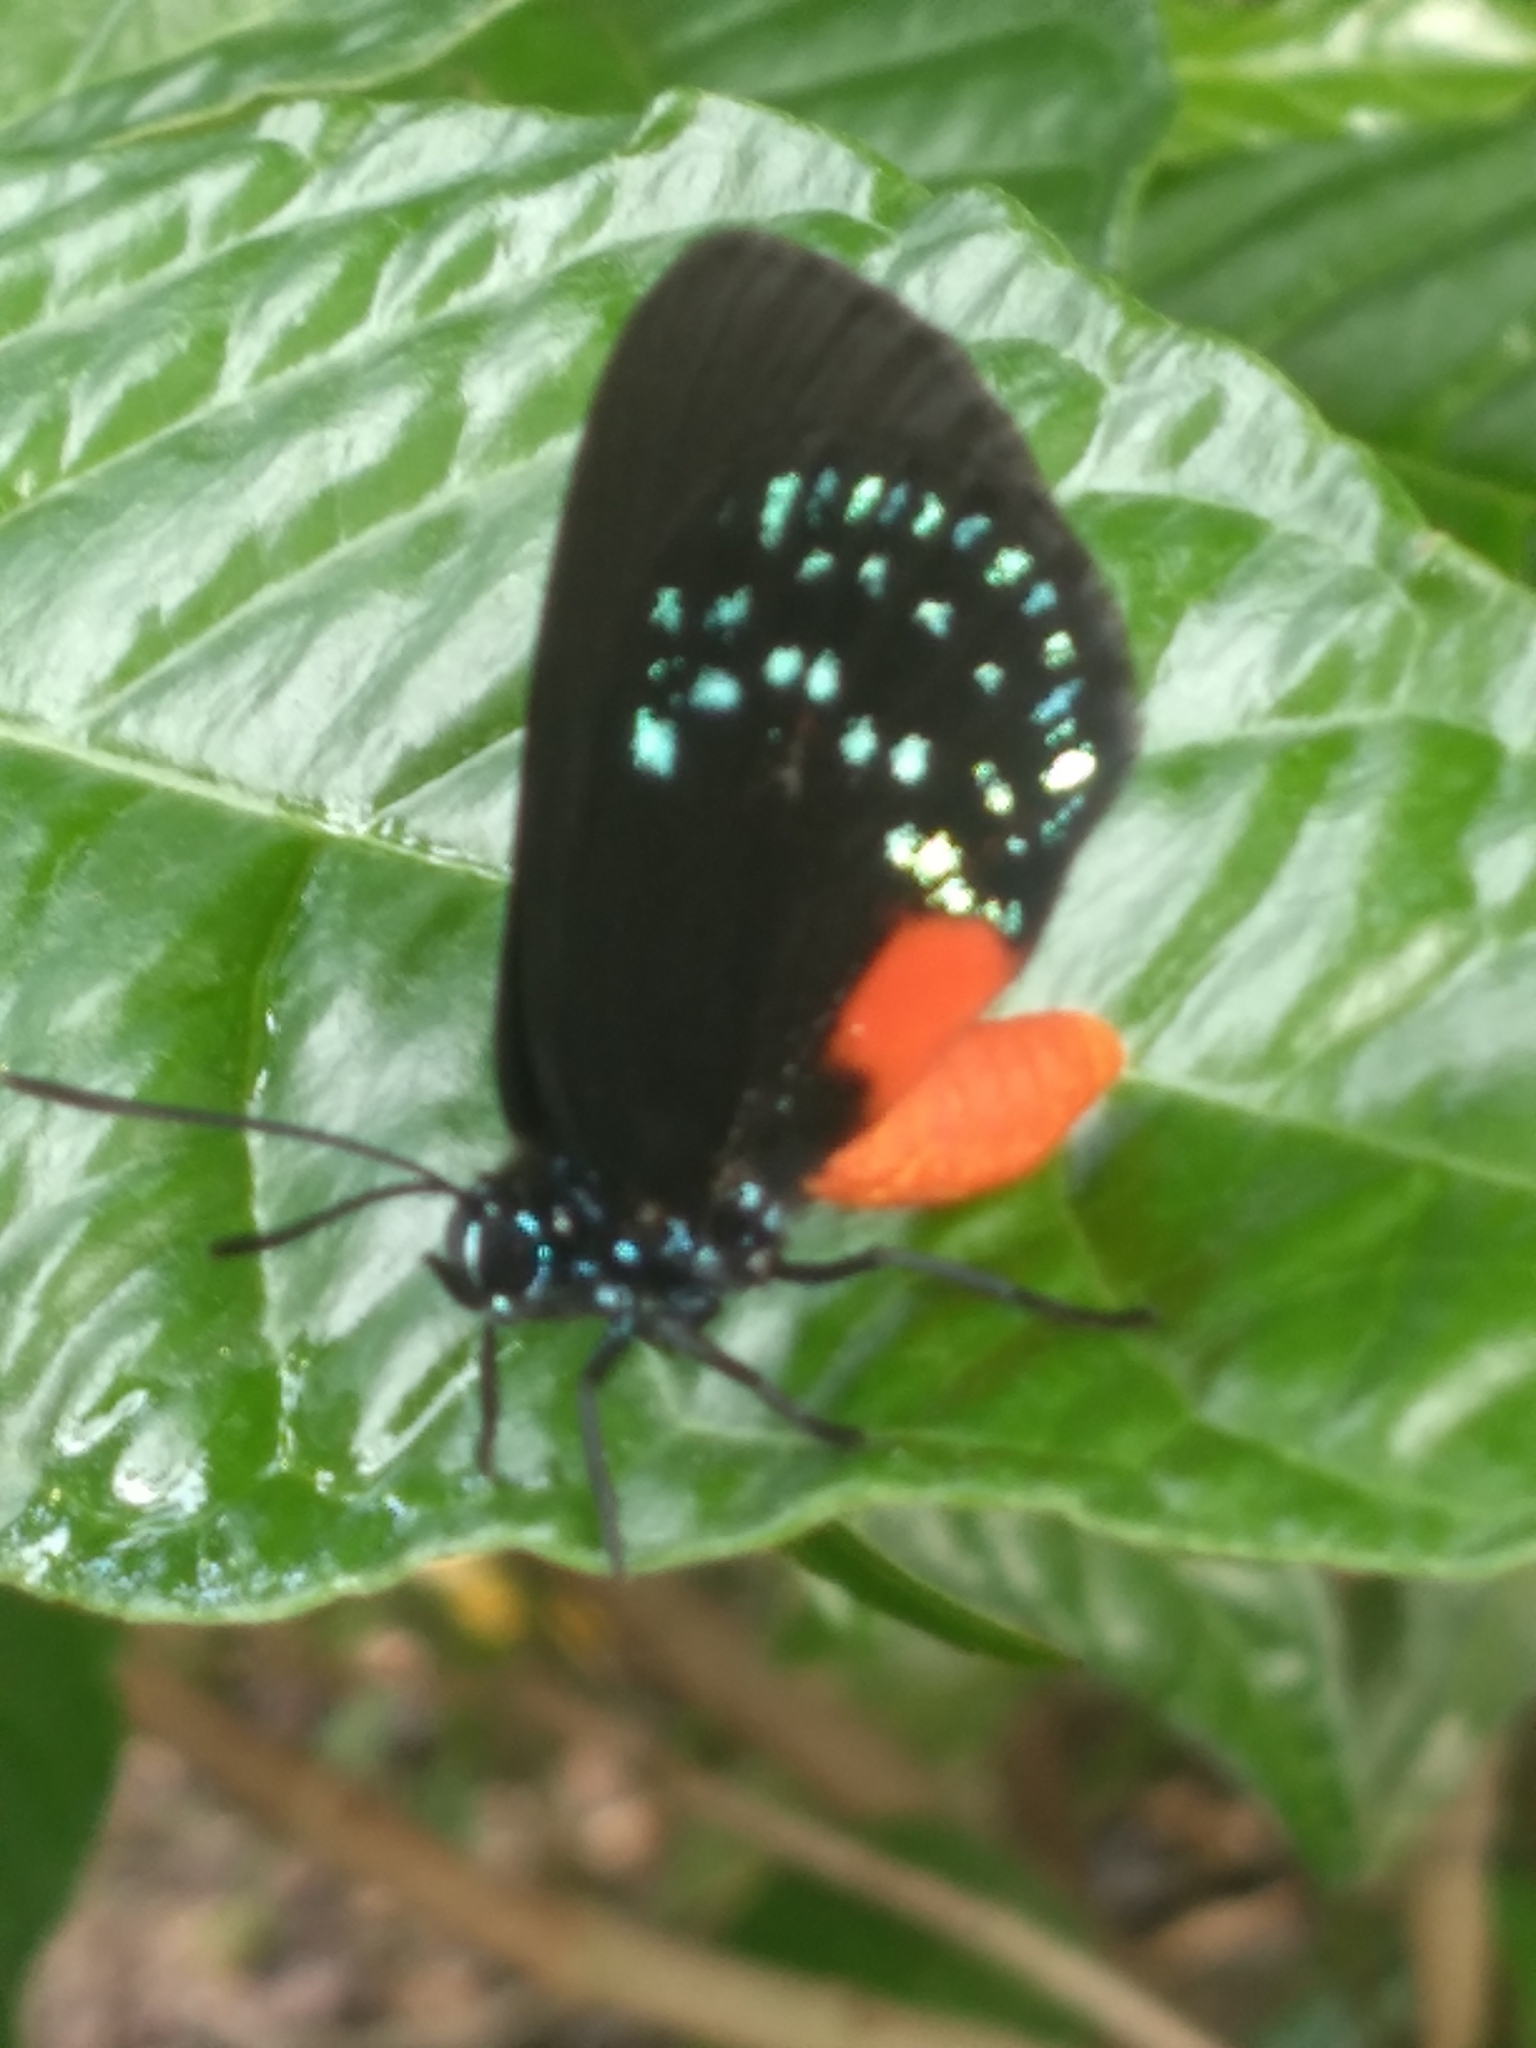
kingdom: Animalia
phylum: Arthropoda
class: Insecta
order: Lepidoptera
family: Lycaenidae
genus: Eumaeus
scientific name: Eumaeus atala
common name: Atala
